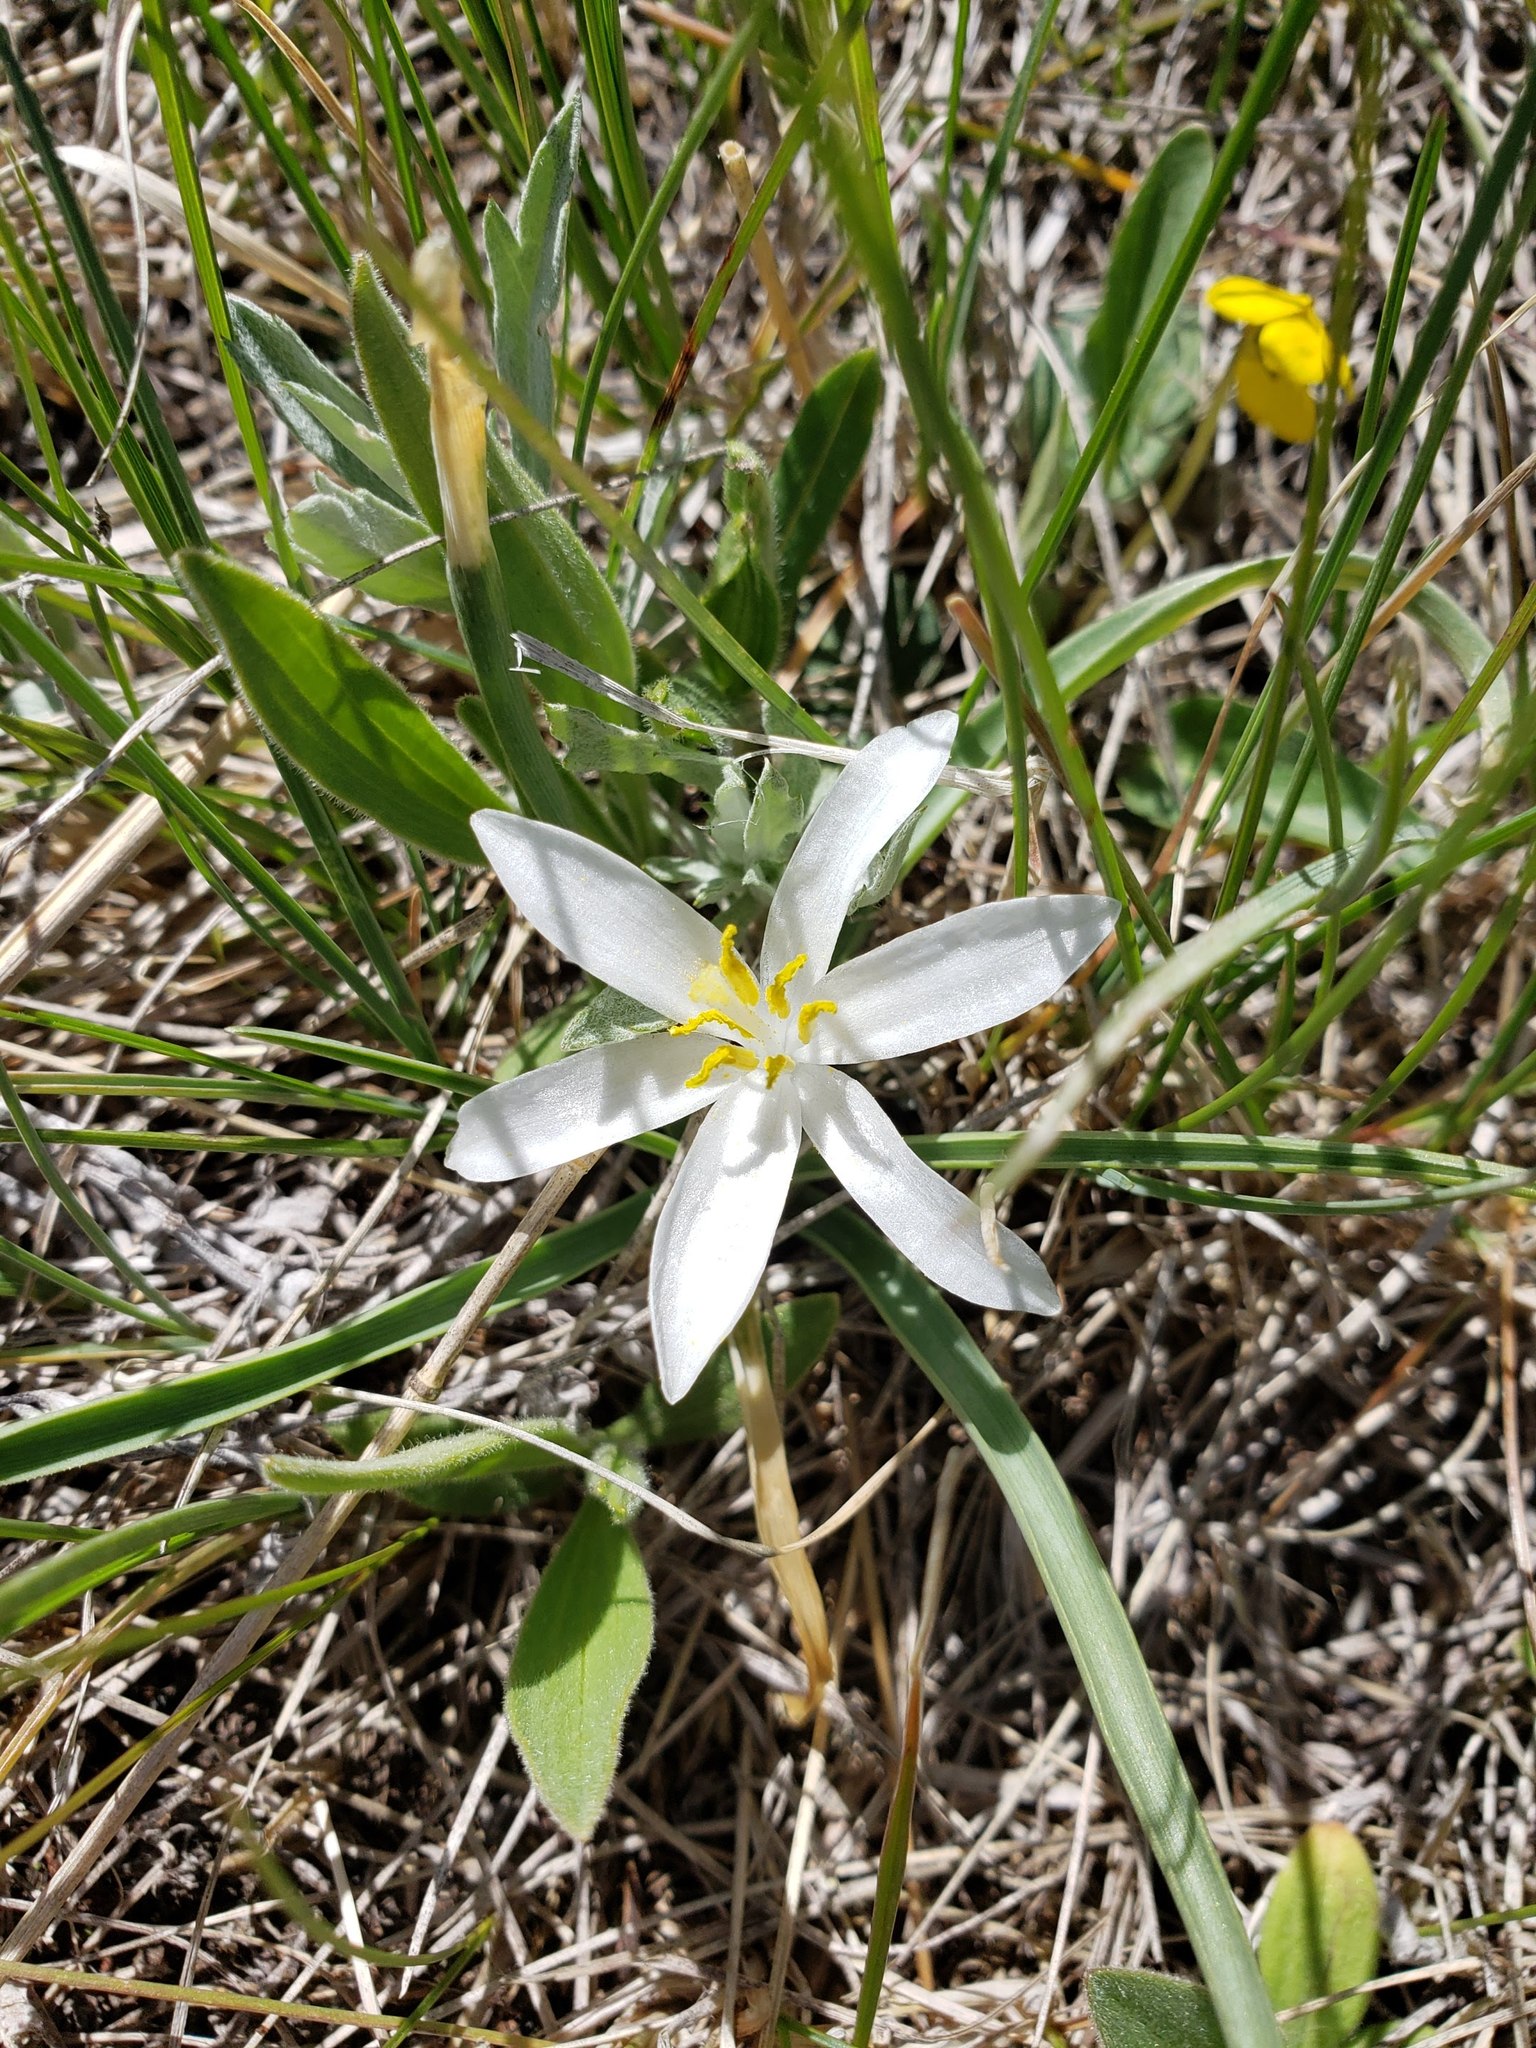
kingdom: Plantae
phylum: Tracheophyta
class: Liliopsida
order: Asparagales
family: Asparagaceae
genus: Leucocrinum
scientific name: Leucocrinum montanum
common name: Mountain-lily
